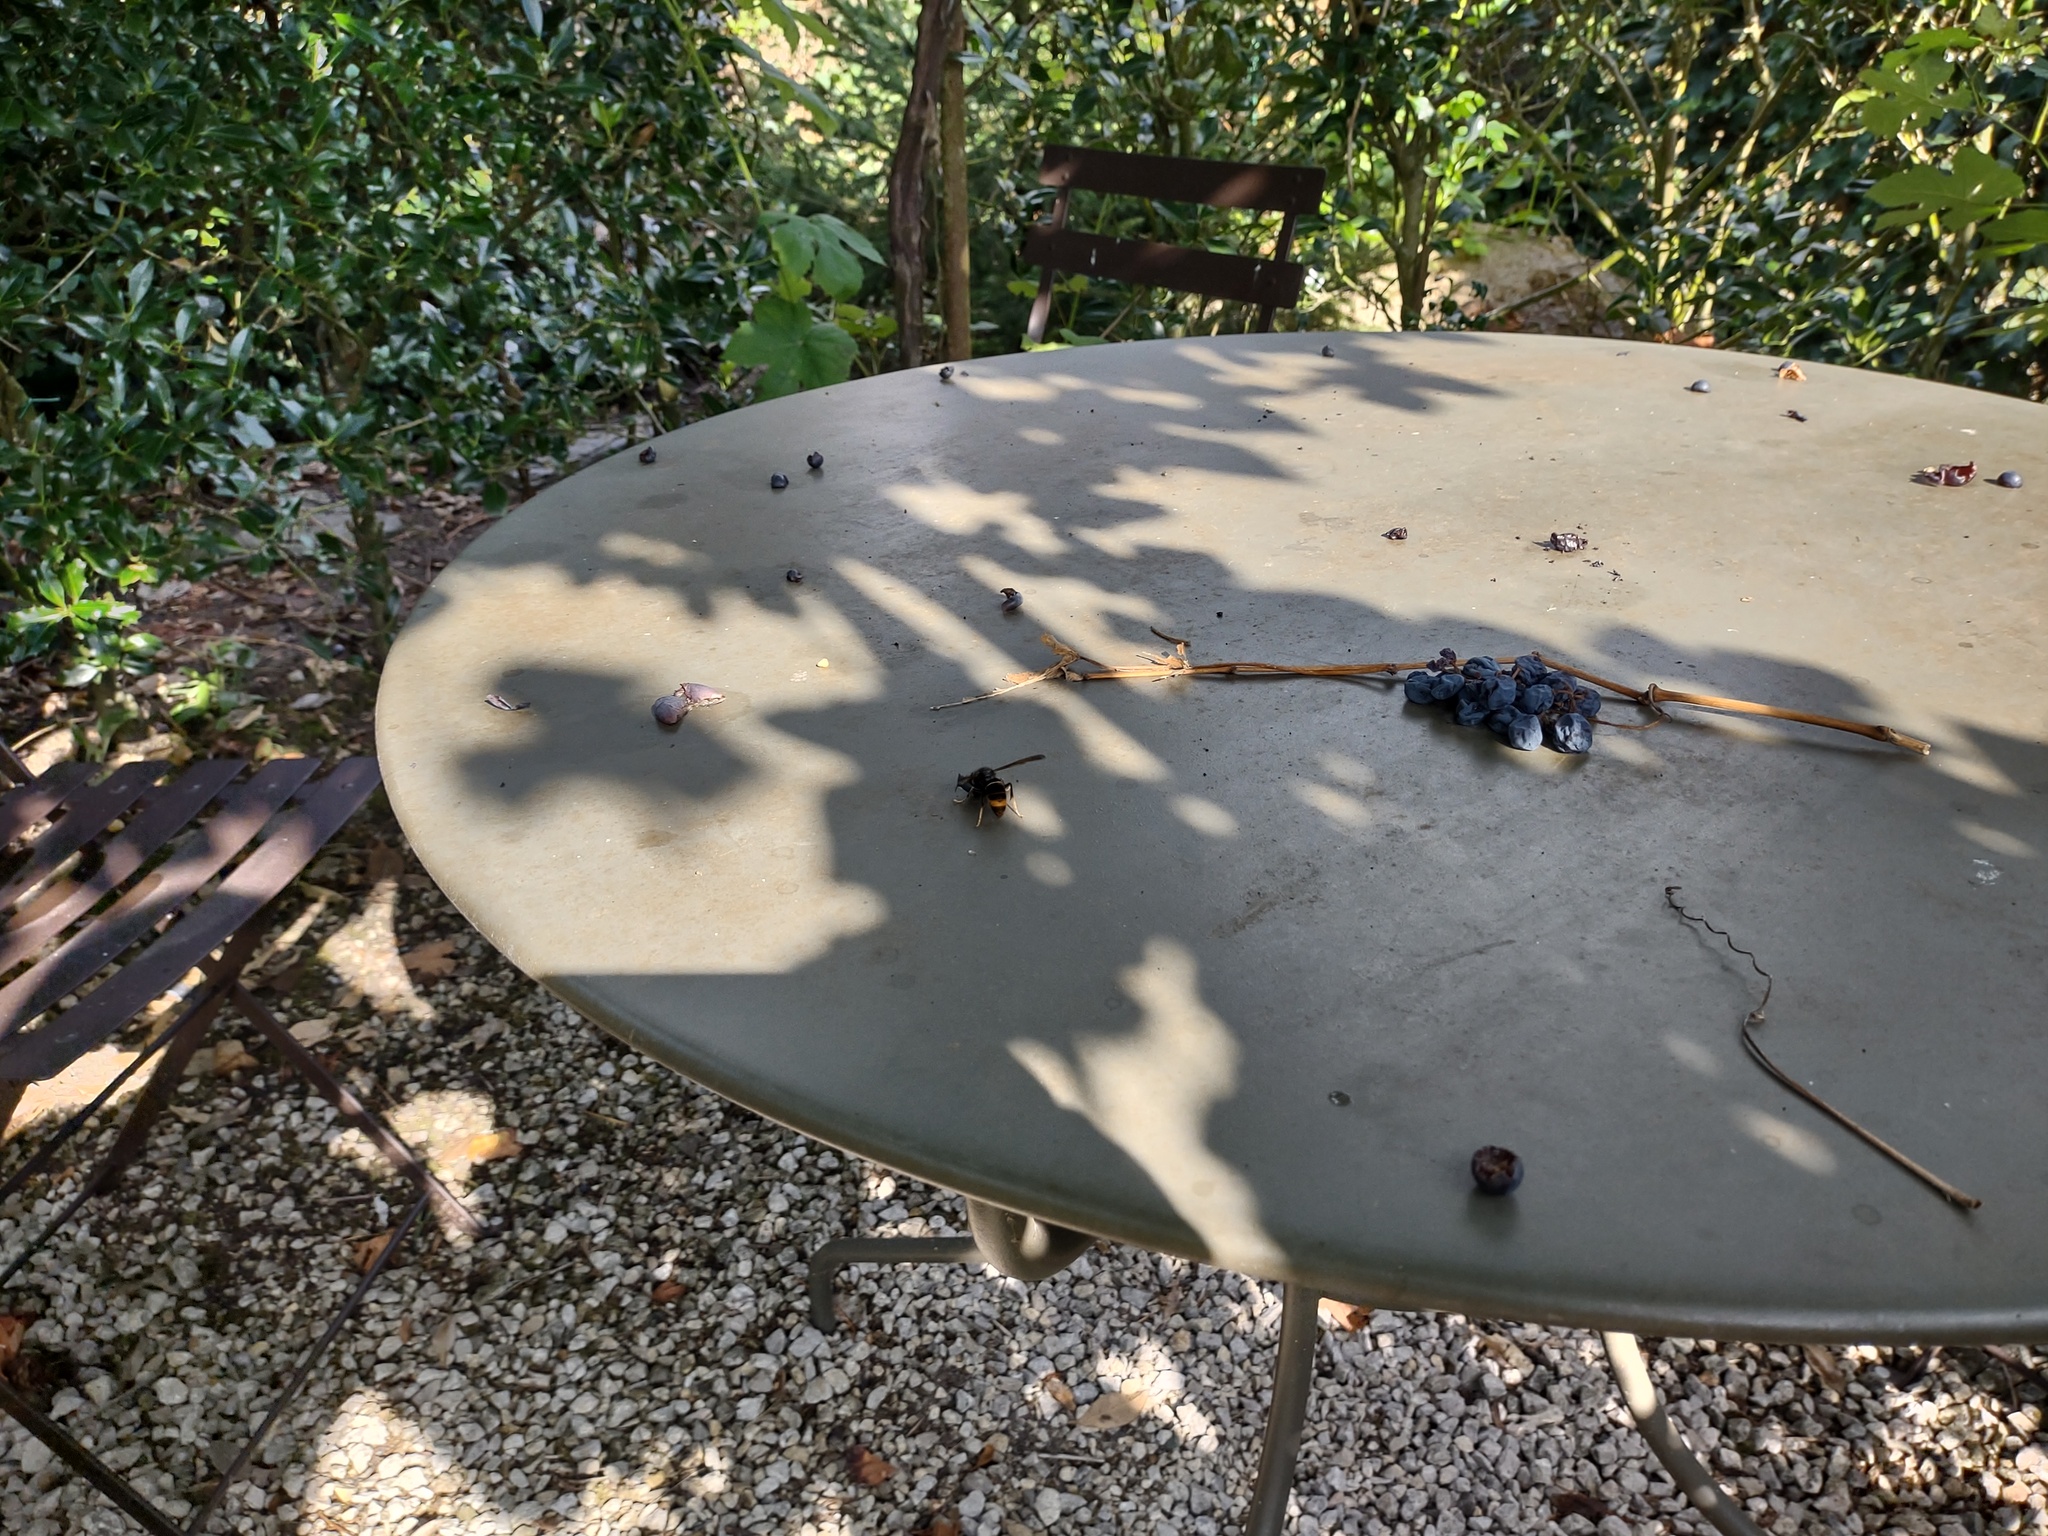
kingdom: Animalia
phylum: Arthropoda
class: Insecta
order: Hymenoptera
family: Vespidae
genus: Vespa
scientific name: Vespa velutina
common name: Asian hornet
